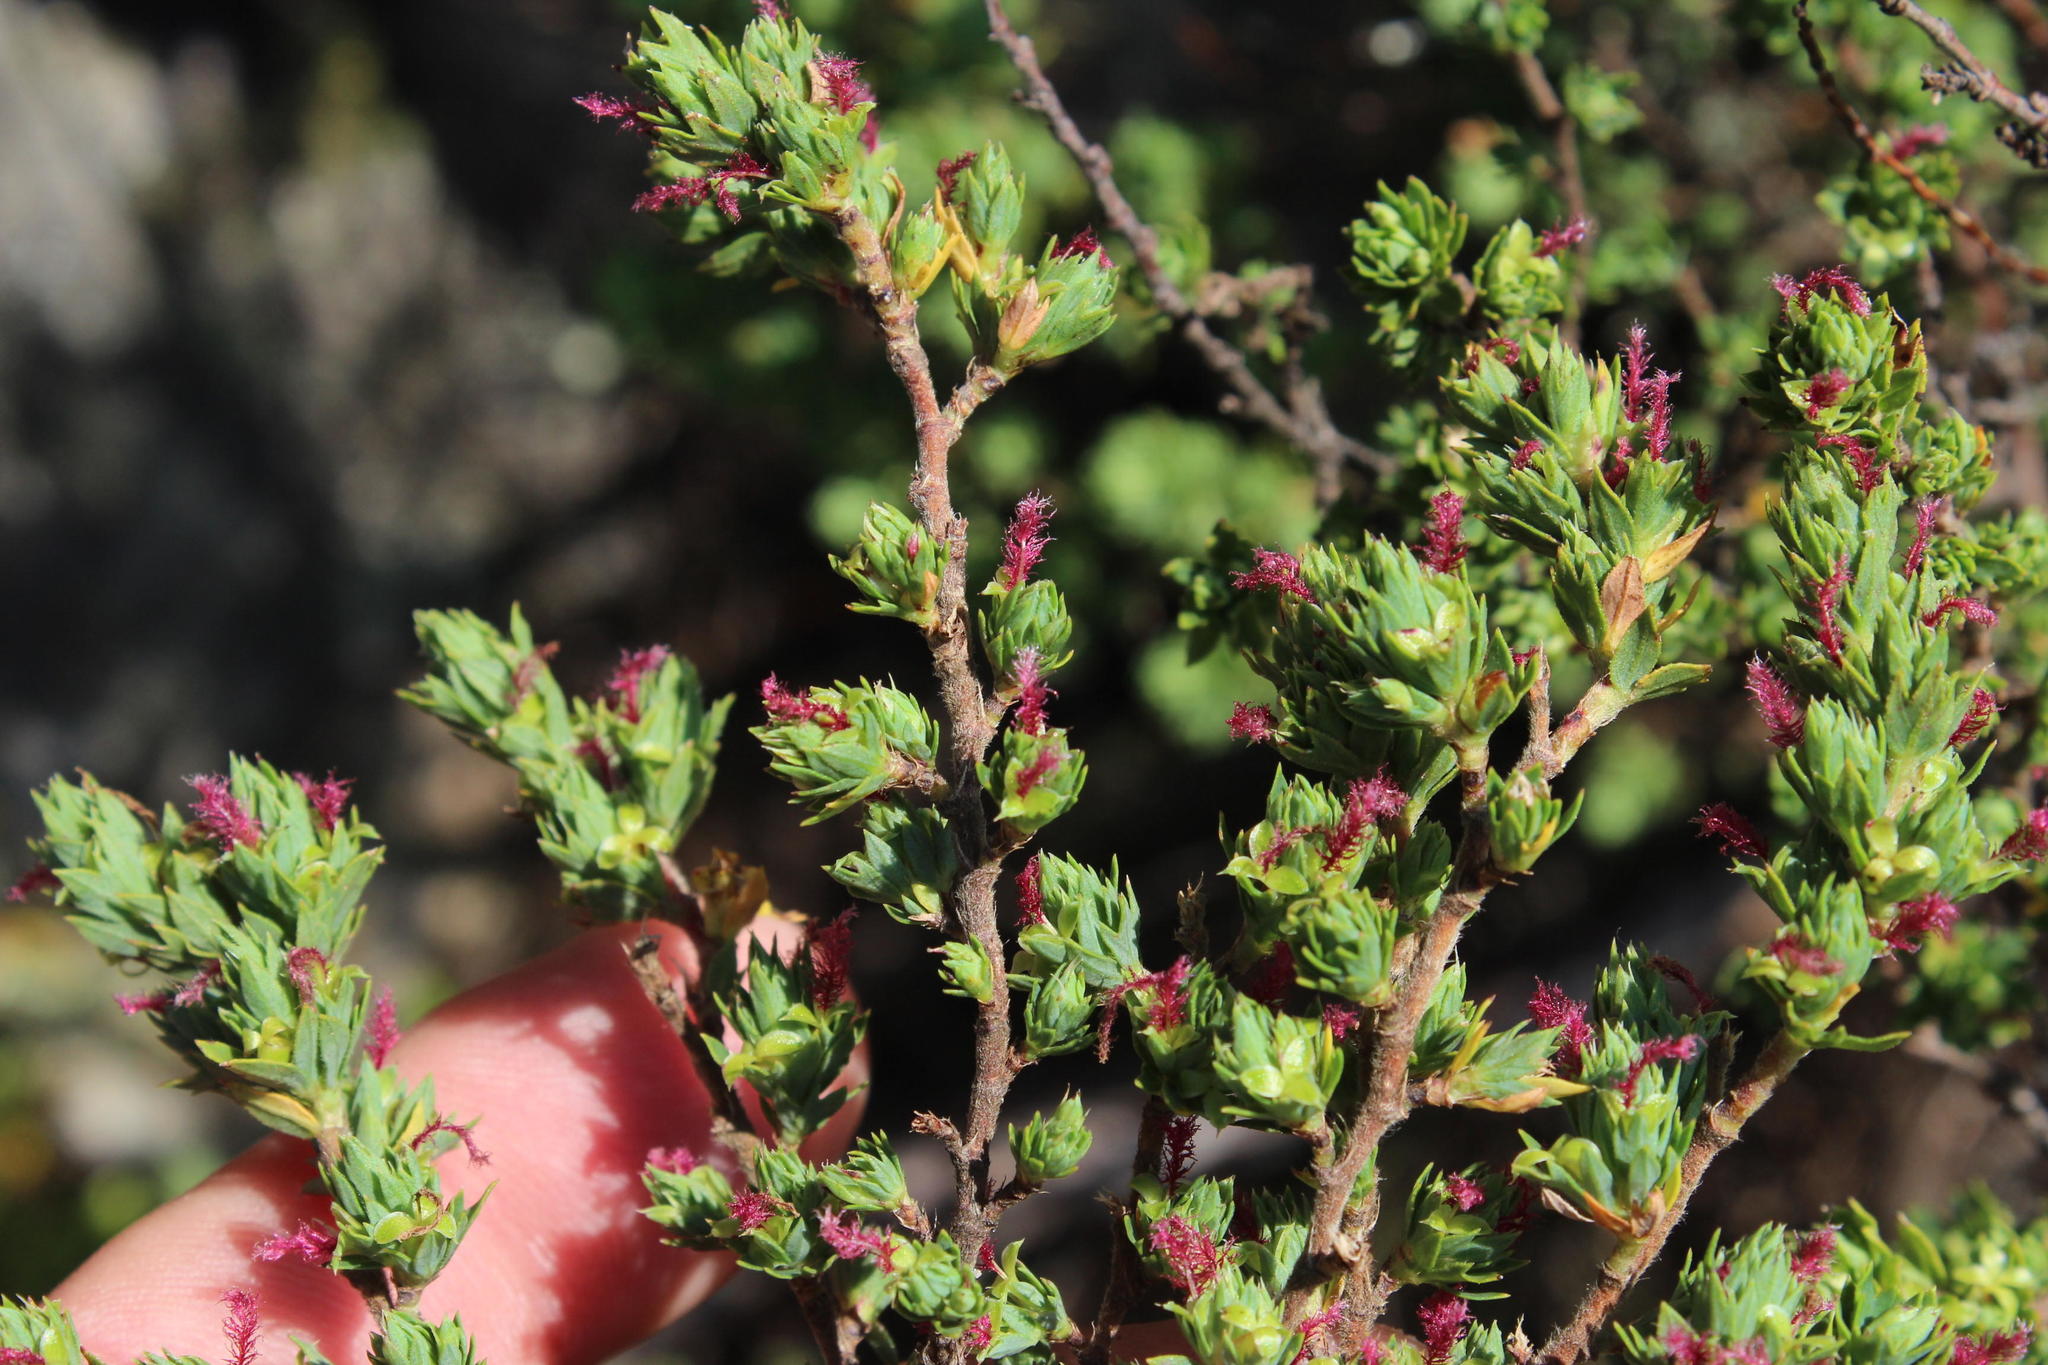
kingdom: Plantae
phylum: Tracheophyta
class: Magnoliopsida
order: Rosales
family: Rosaceae
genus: Cliffortia
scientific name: Cliffortia polygonifolia
